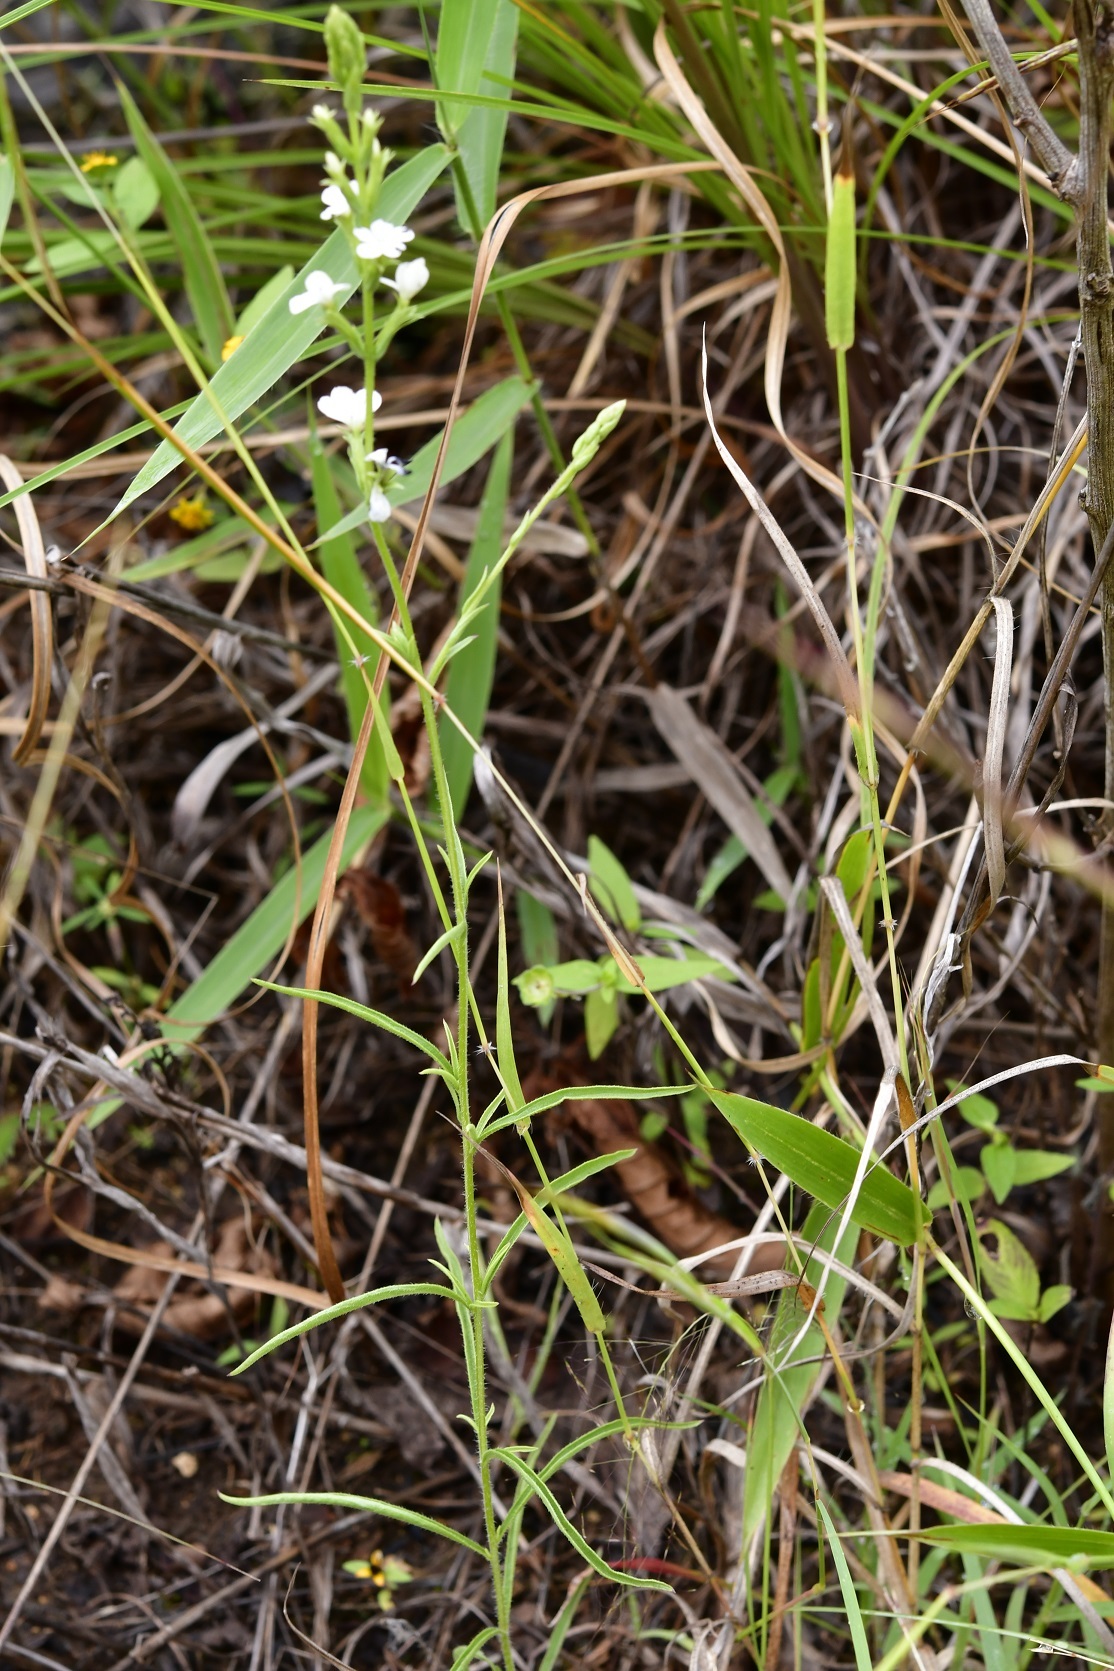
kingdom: Plantae
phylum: Tracheophyta
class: Magnoliopsida
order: Lamiales
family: Orobanchaceae
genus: Buchnera
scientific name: Buchnera pusilla
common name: Pygmy bluehearts
